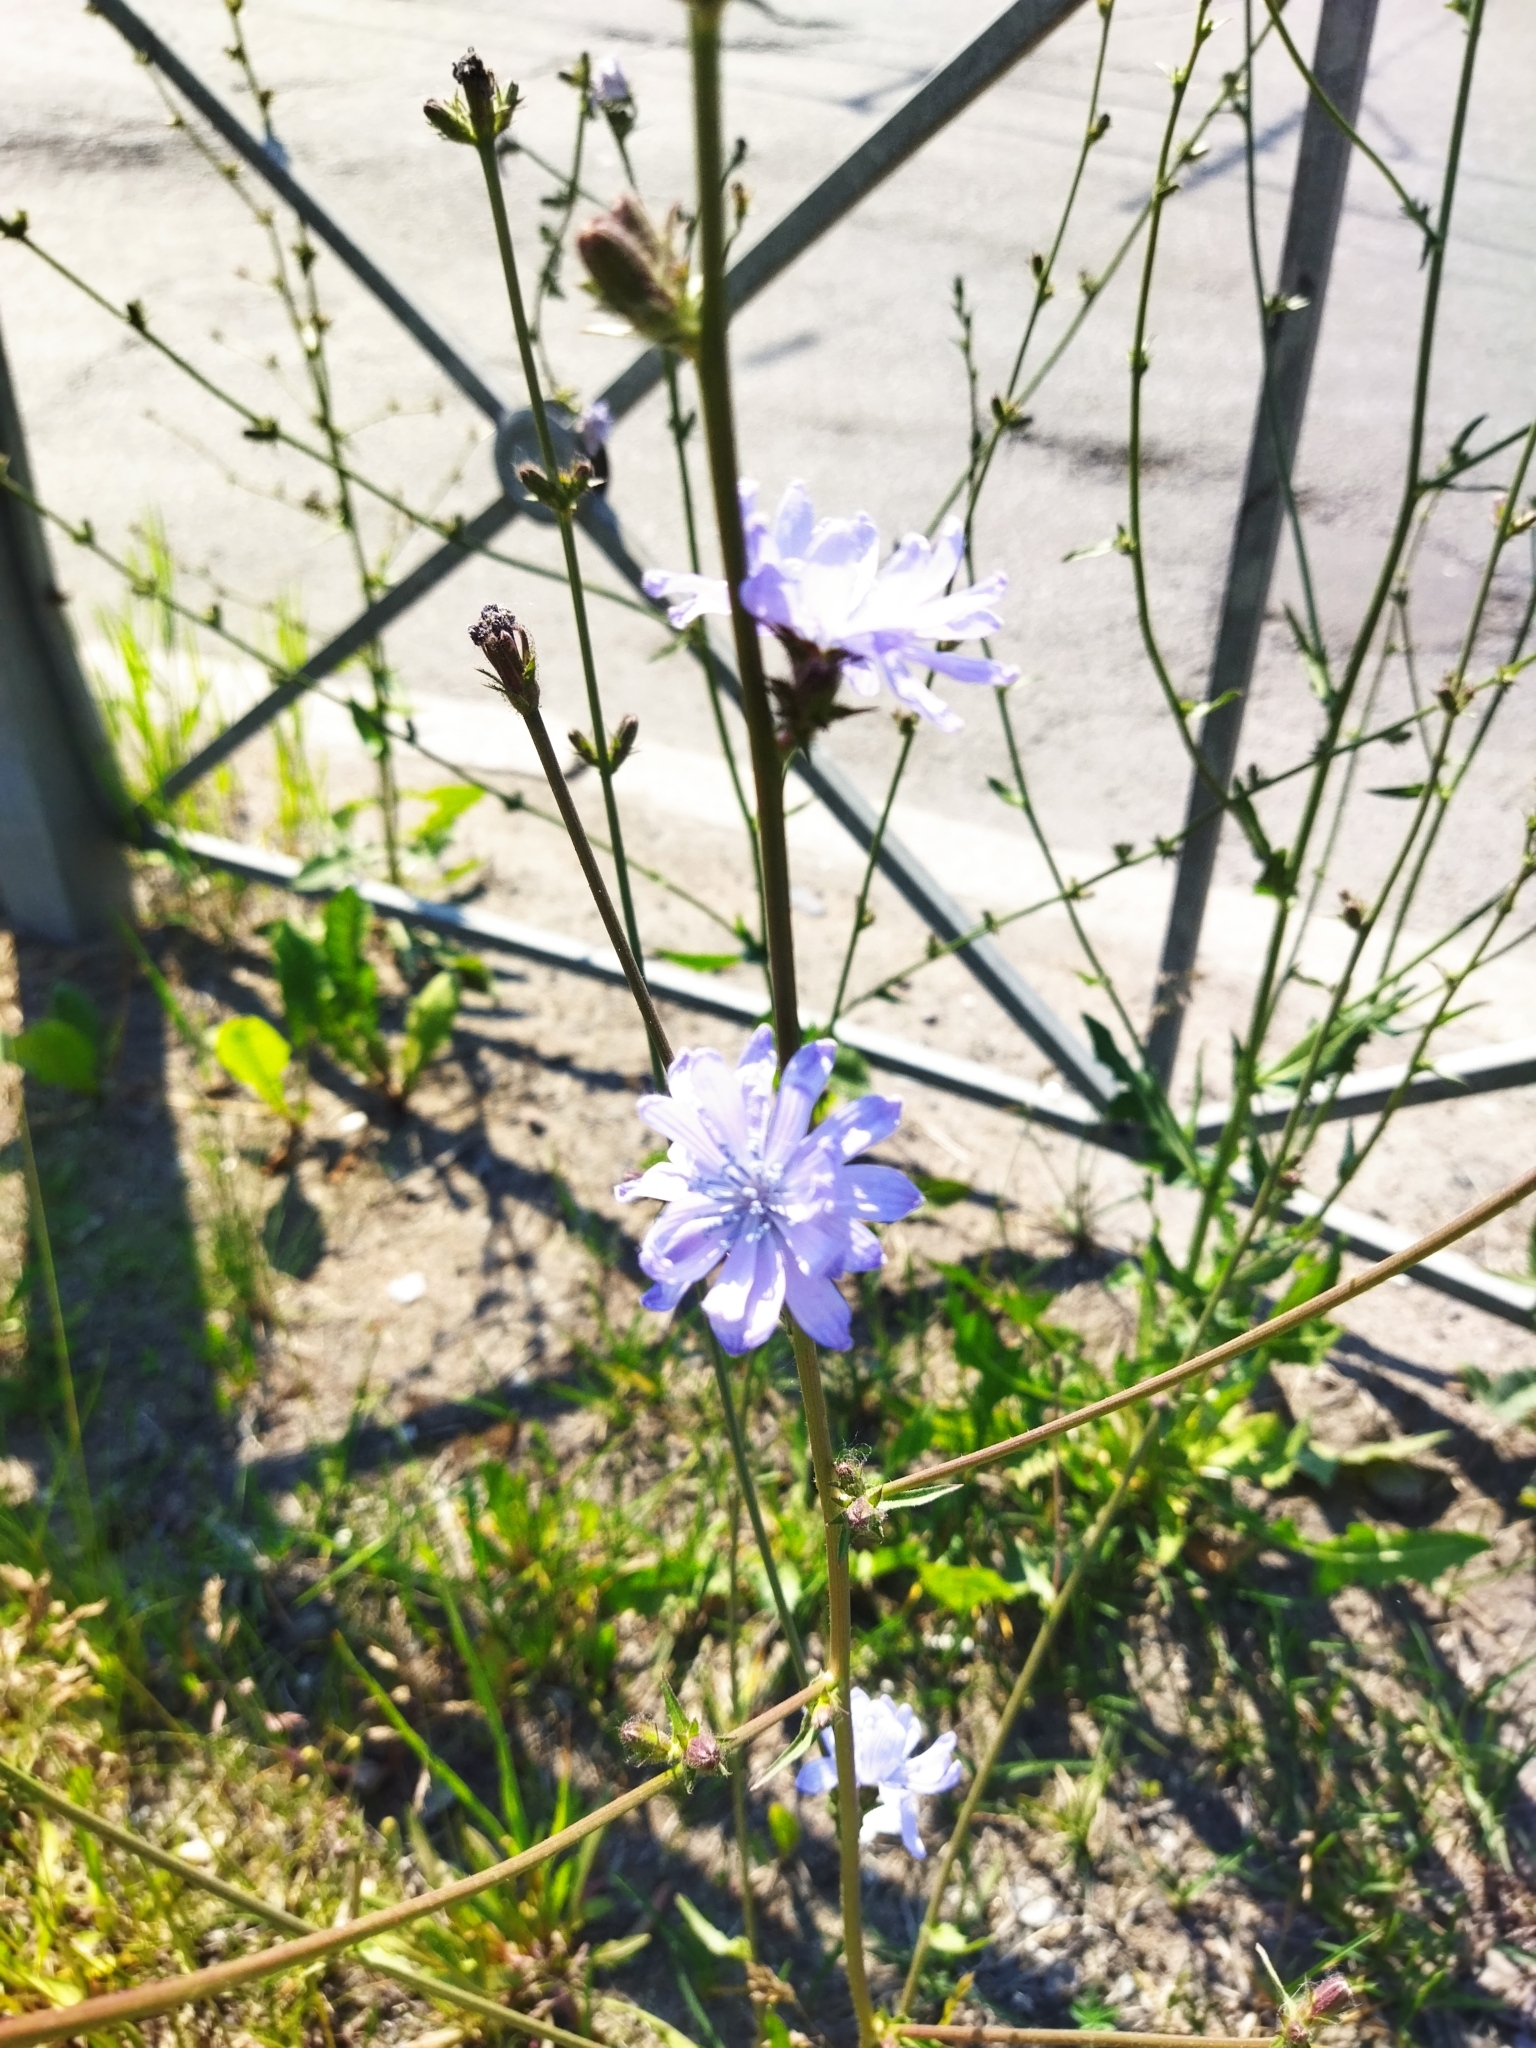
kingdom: Plantae
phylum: Tracheophyta
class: Magnoliopsida
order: Asterales
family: Asteraceae
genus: Cichorium
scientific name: Cichorium intybus
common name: Chicory
